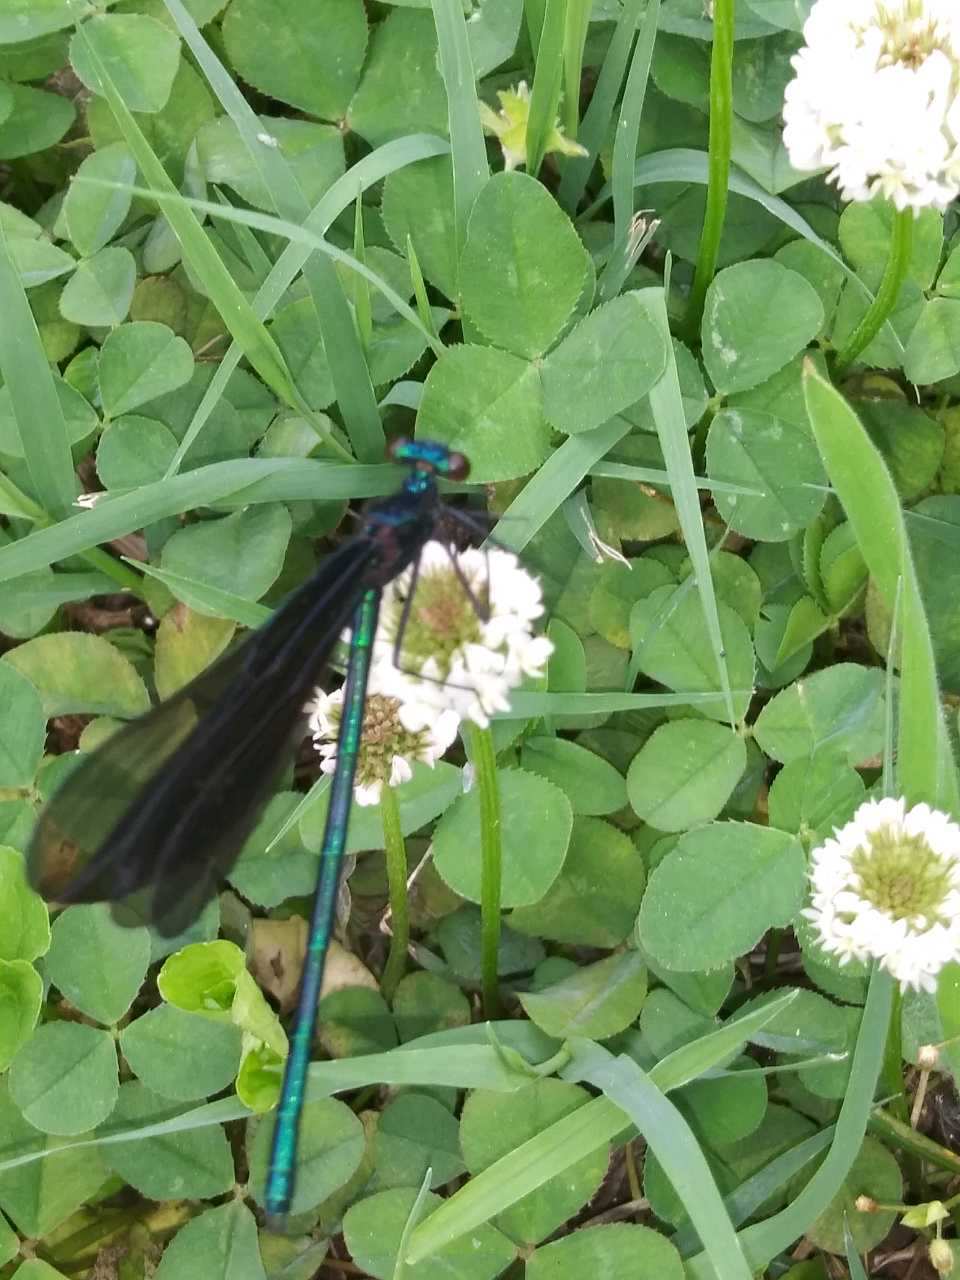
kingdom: Animalia
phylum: Arthropoda
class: Insecta
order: Odonata
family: Calopterygidae
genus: Calopteryx
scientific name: Calopteryx maculata
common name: Ebony jewelwing
